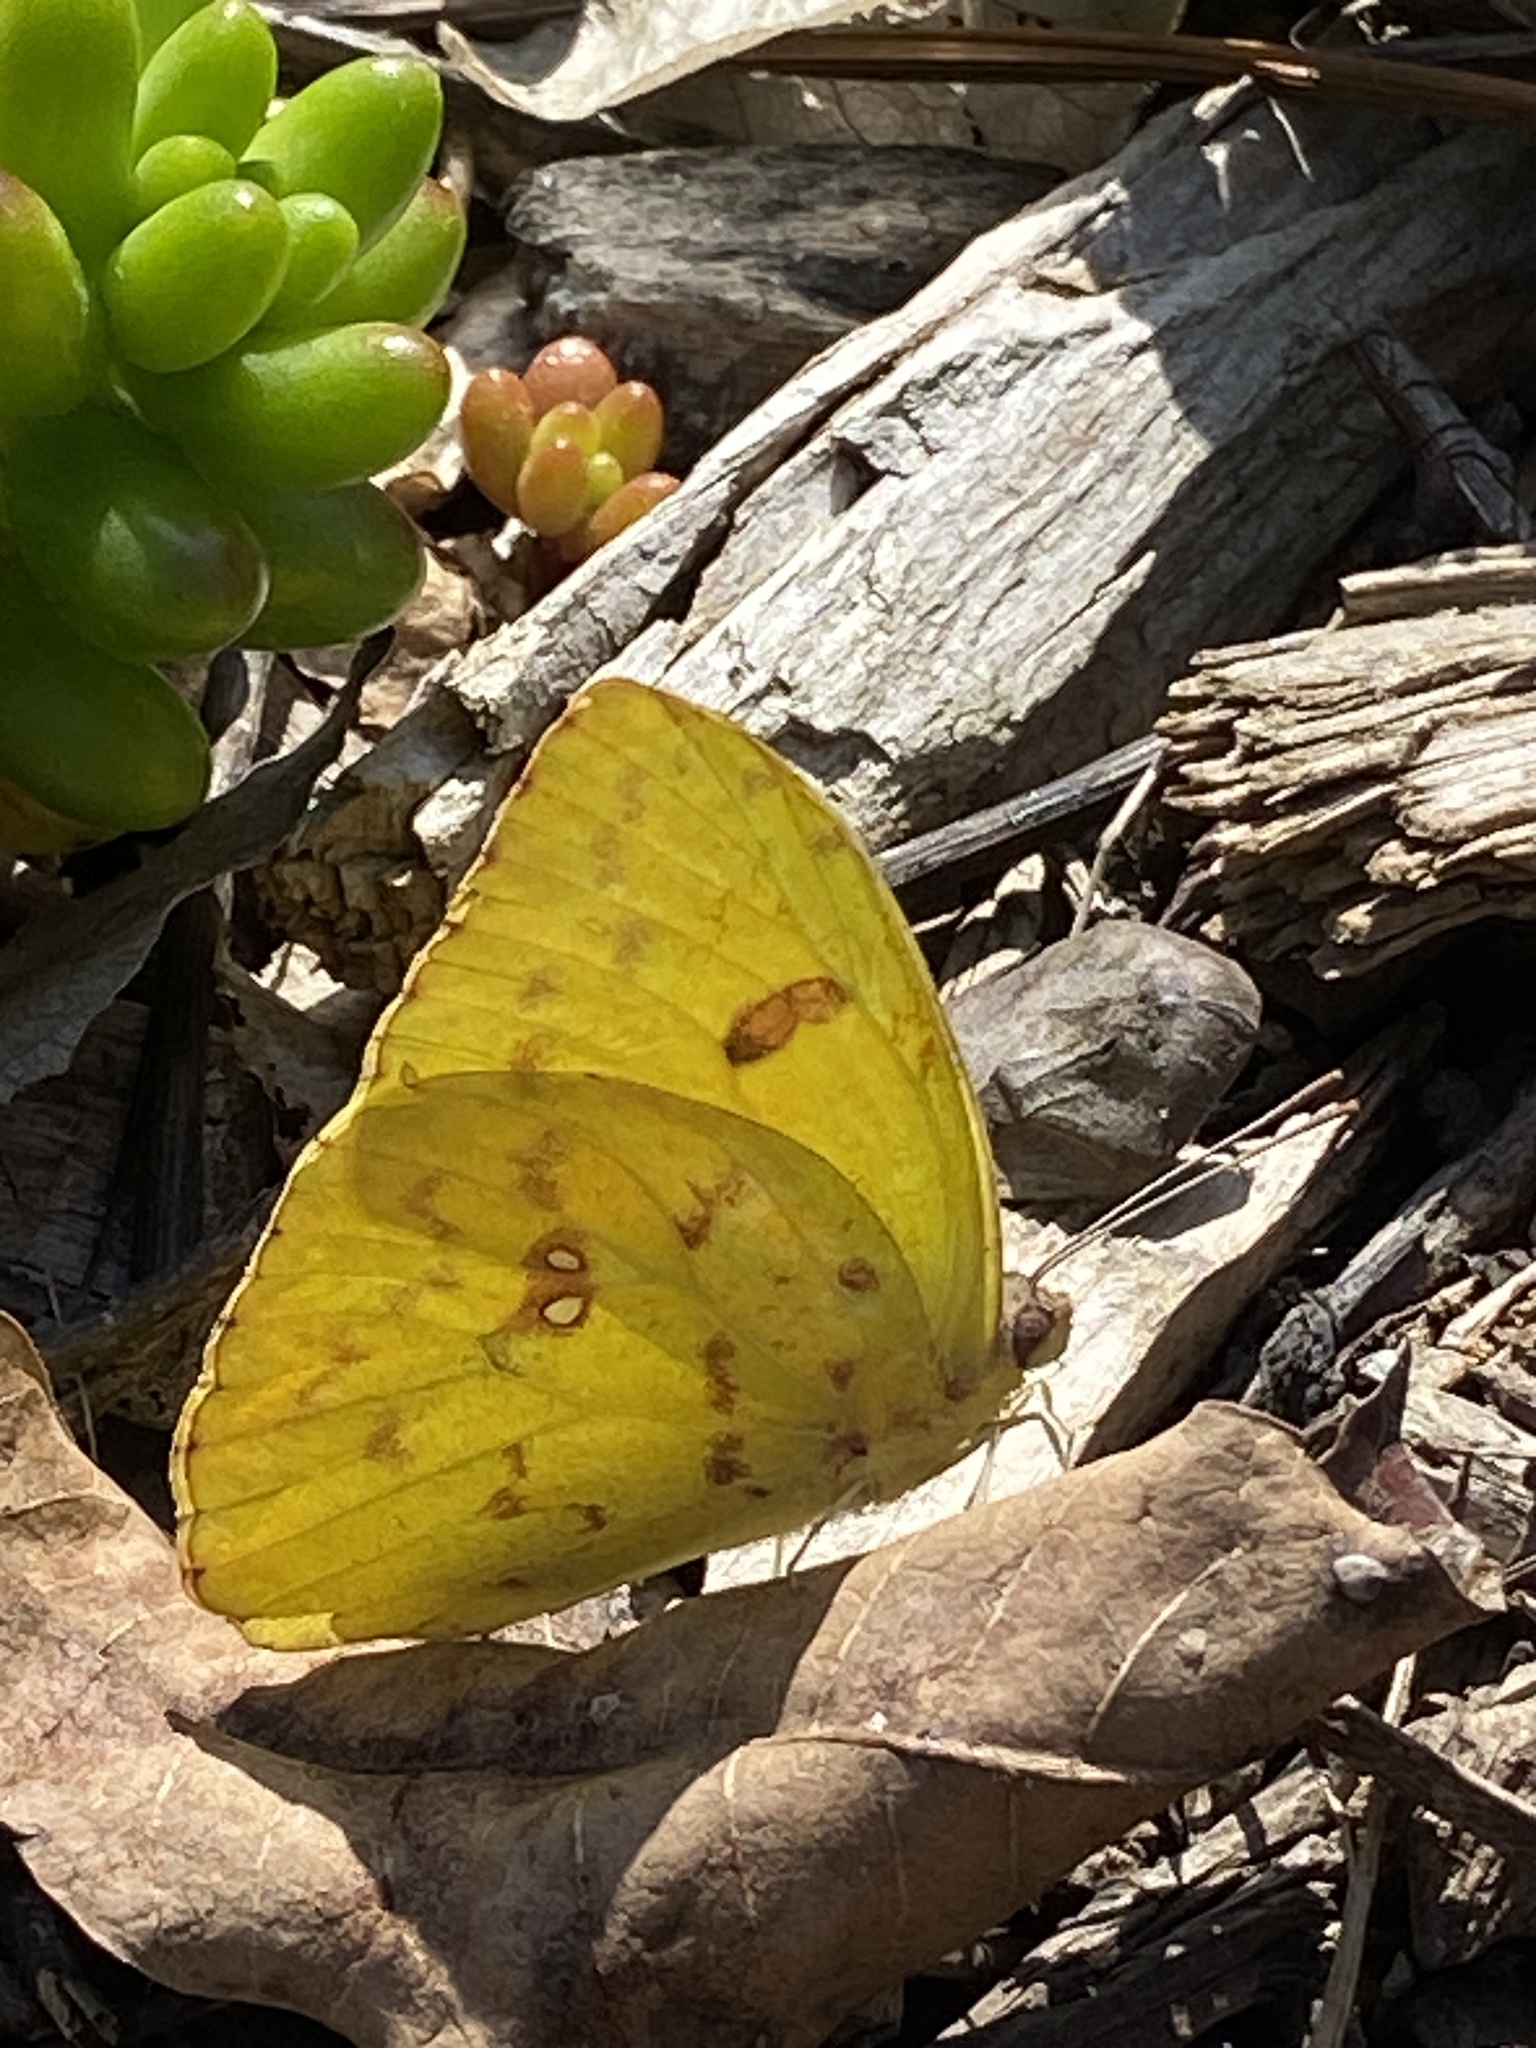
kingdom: Animalia
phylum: Arthropoda
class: Insecta
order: Lepidoptera
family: Pieridae
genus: Phoebis
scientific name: Phoebis sennae
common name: Cloudless sulphur
